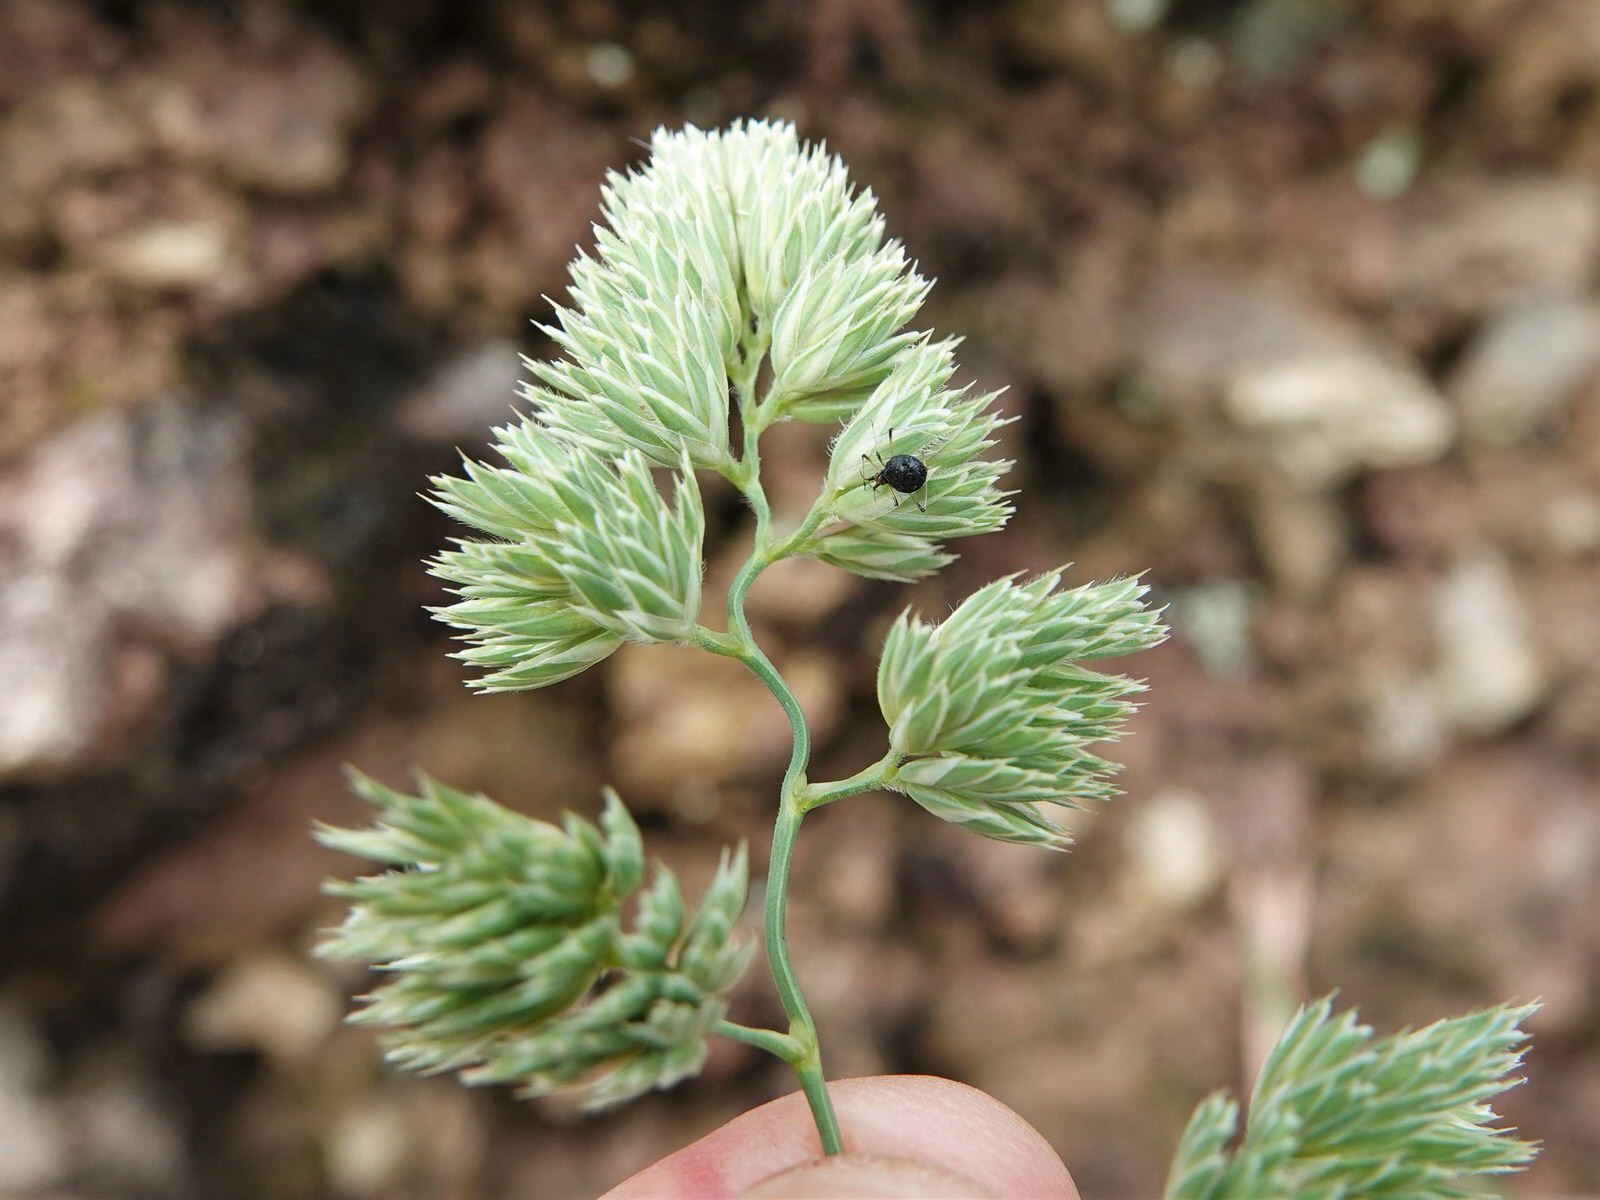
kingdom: Plantae
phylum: Tracheophyta
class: Liliopsida
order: Poales
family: Poaceae
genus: Dactylis
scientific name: Dactylis glomerata
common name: Orchardgrass
